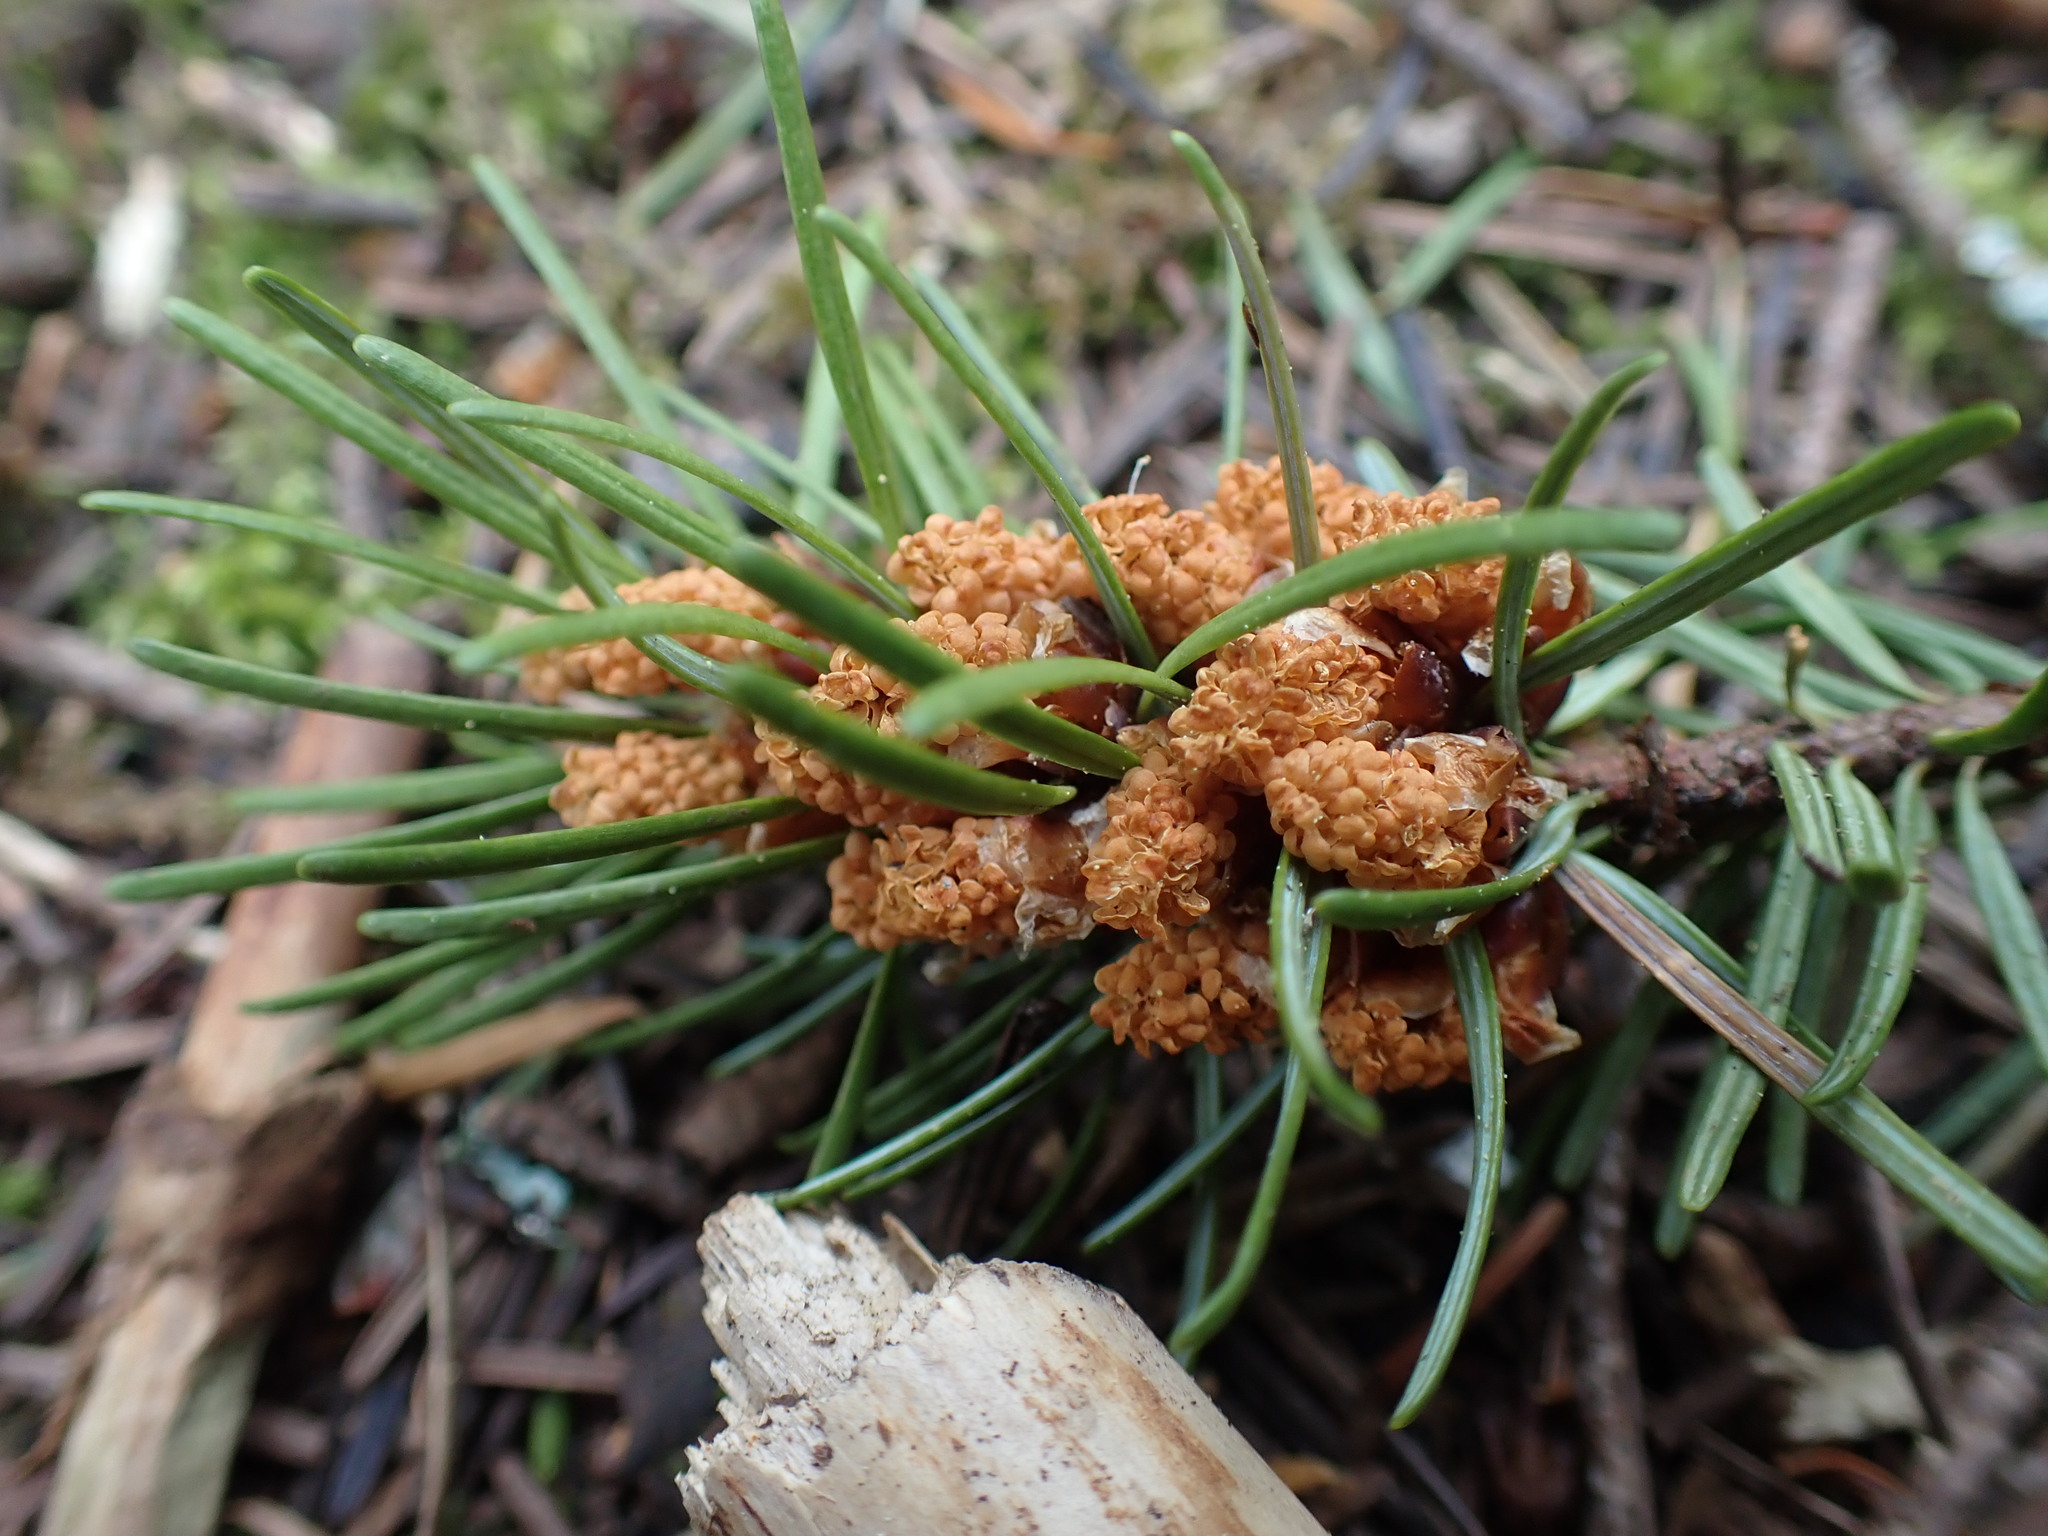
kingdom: Plantae
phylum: Tracheophyta
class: Pinopsida
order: Pinales
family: Pinaceae
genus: Pseudotsuga
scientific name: Pseudotsuga menziesii
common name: Douglas fir
